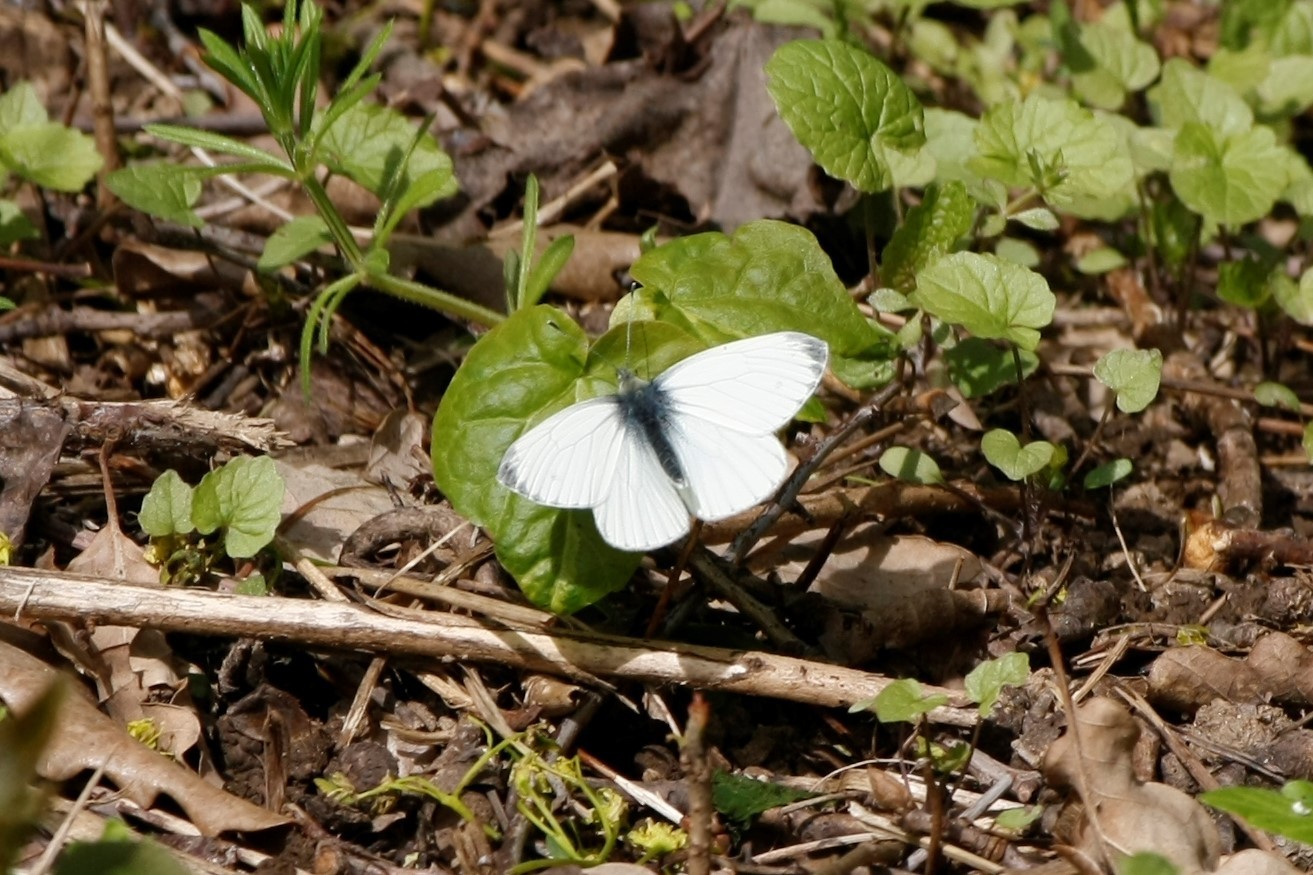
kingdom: Animalia
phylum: Arthropoda
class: Insecta
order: Lepidoptera
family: Pieridae
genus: Pieris
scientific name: Pieris napi
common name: Green-veined white
